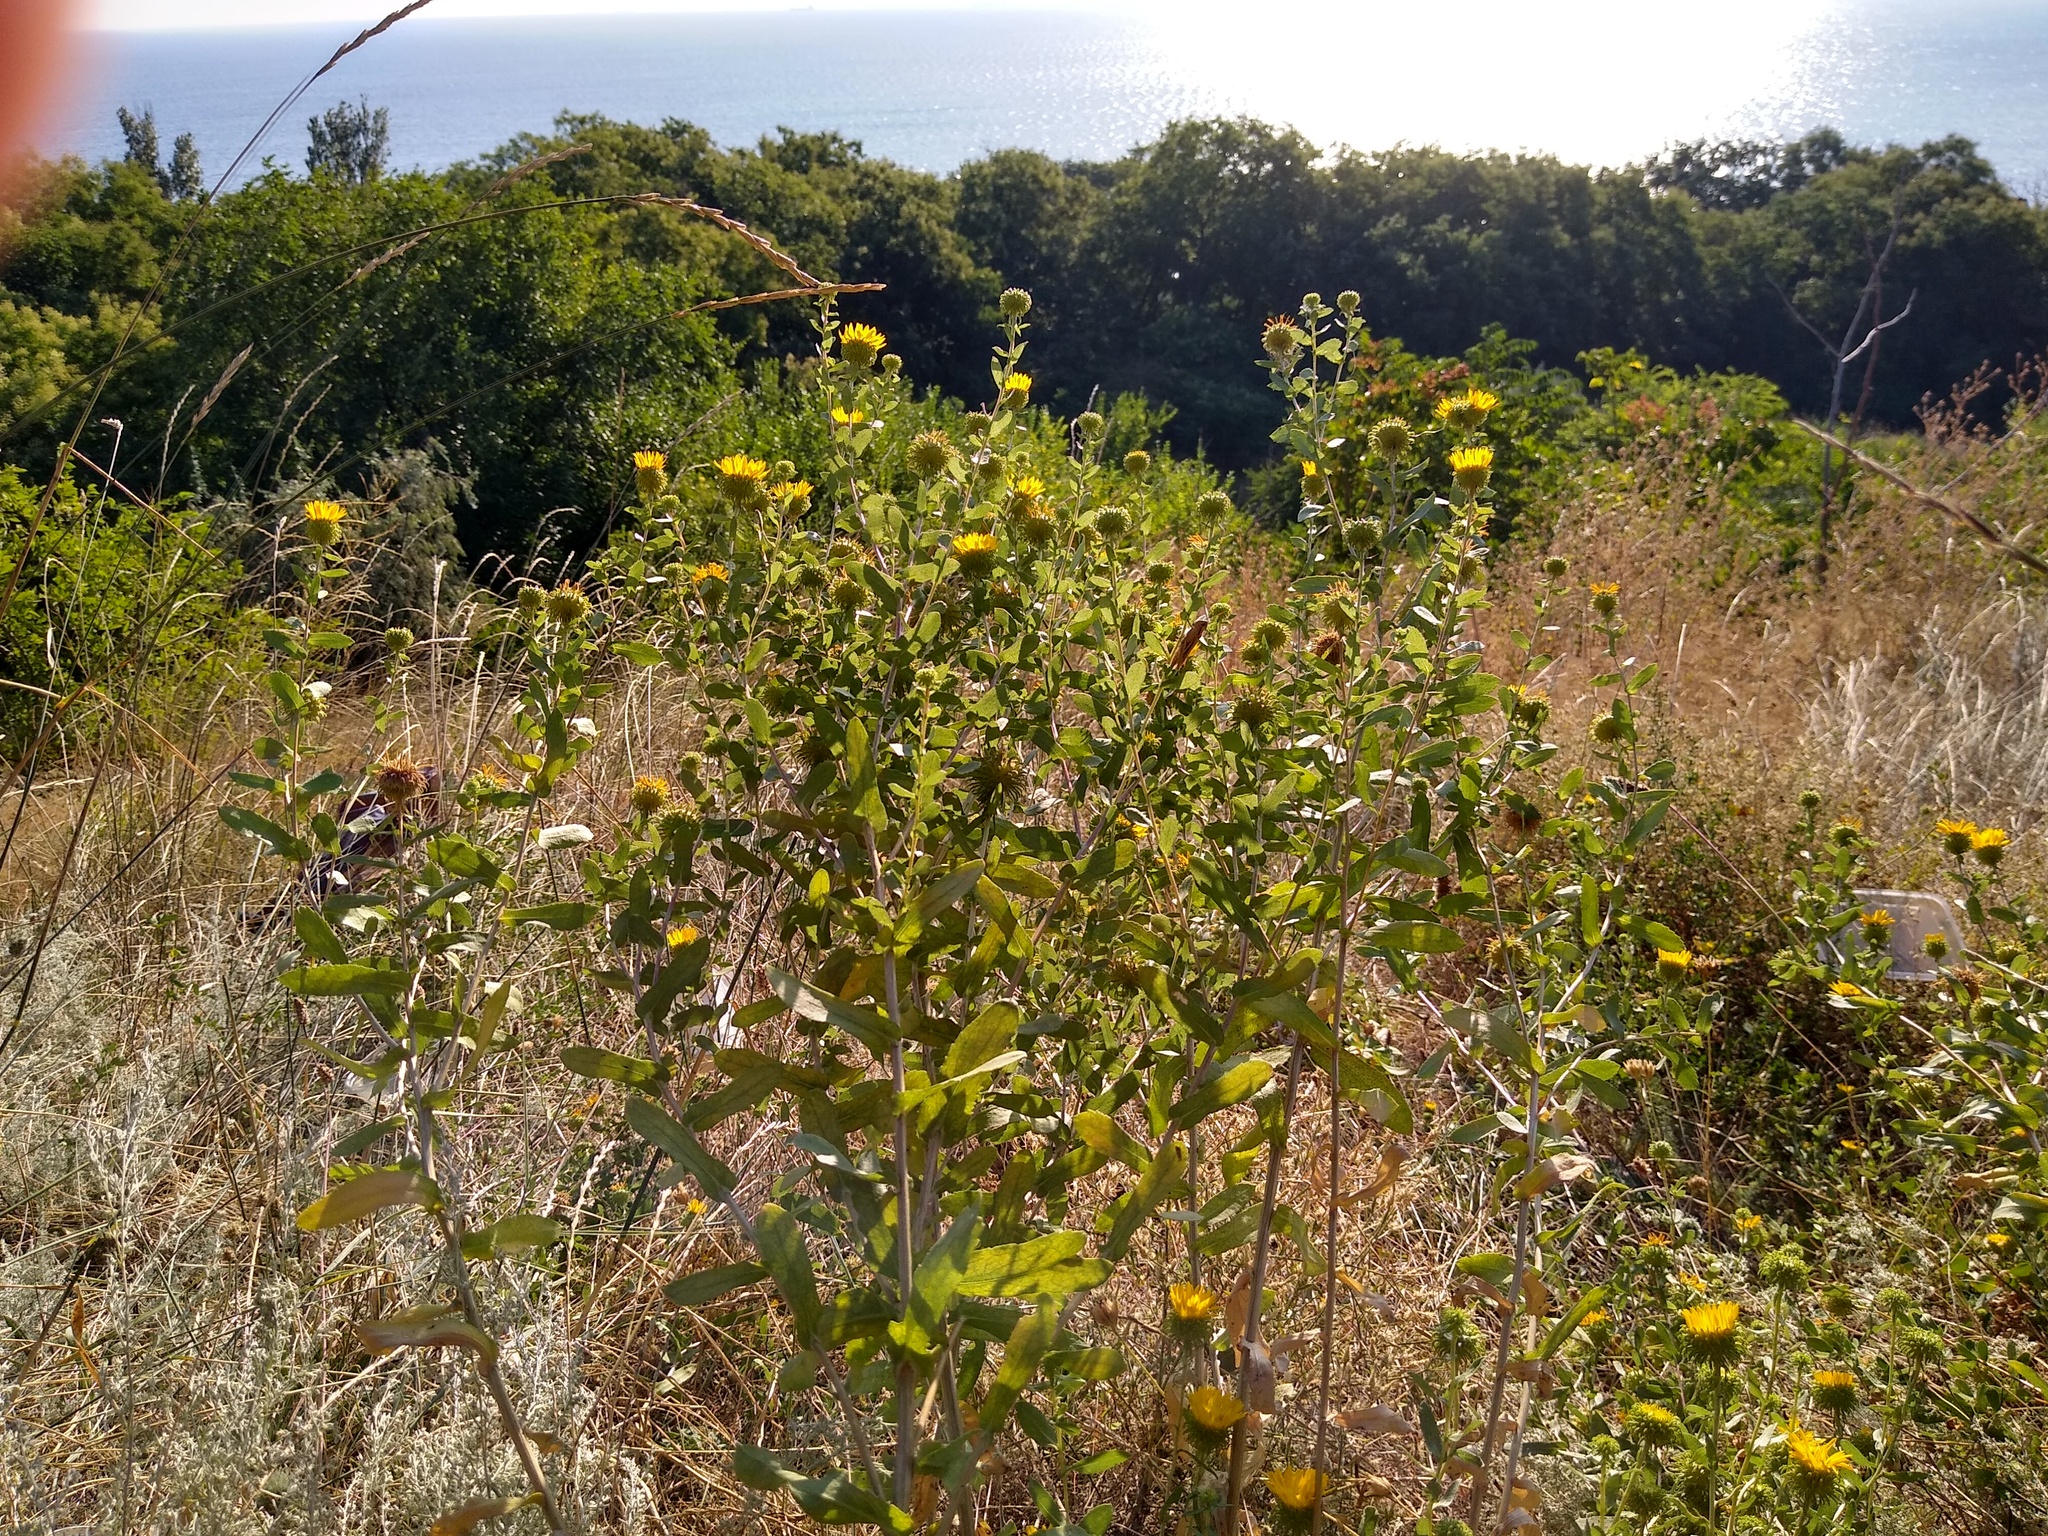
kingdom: Plantae
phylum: Tracheophyta
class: Magnoliopsida
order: Asterales
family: Asteraceae
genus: Grindelia
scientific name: Grindelia squarrosa
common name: Curly-cup gumweed
